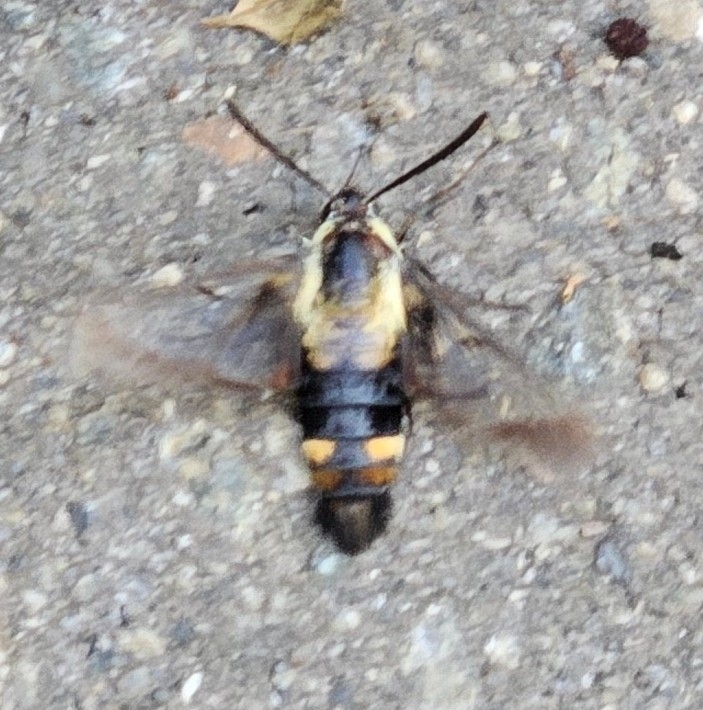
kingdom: Animalia
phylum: Arthropoda
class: Insecta
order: Lepidoptera
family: Sphingidae
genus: Hemaris
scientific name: Hemaris diffinis
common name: Bumblebee moth
